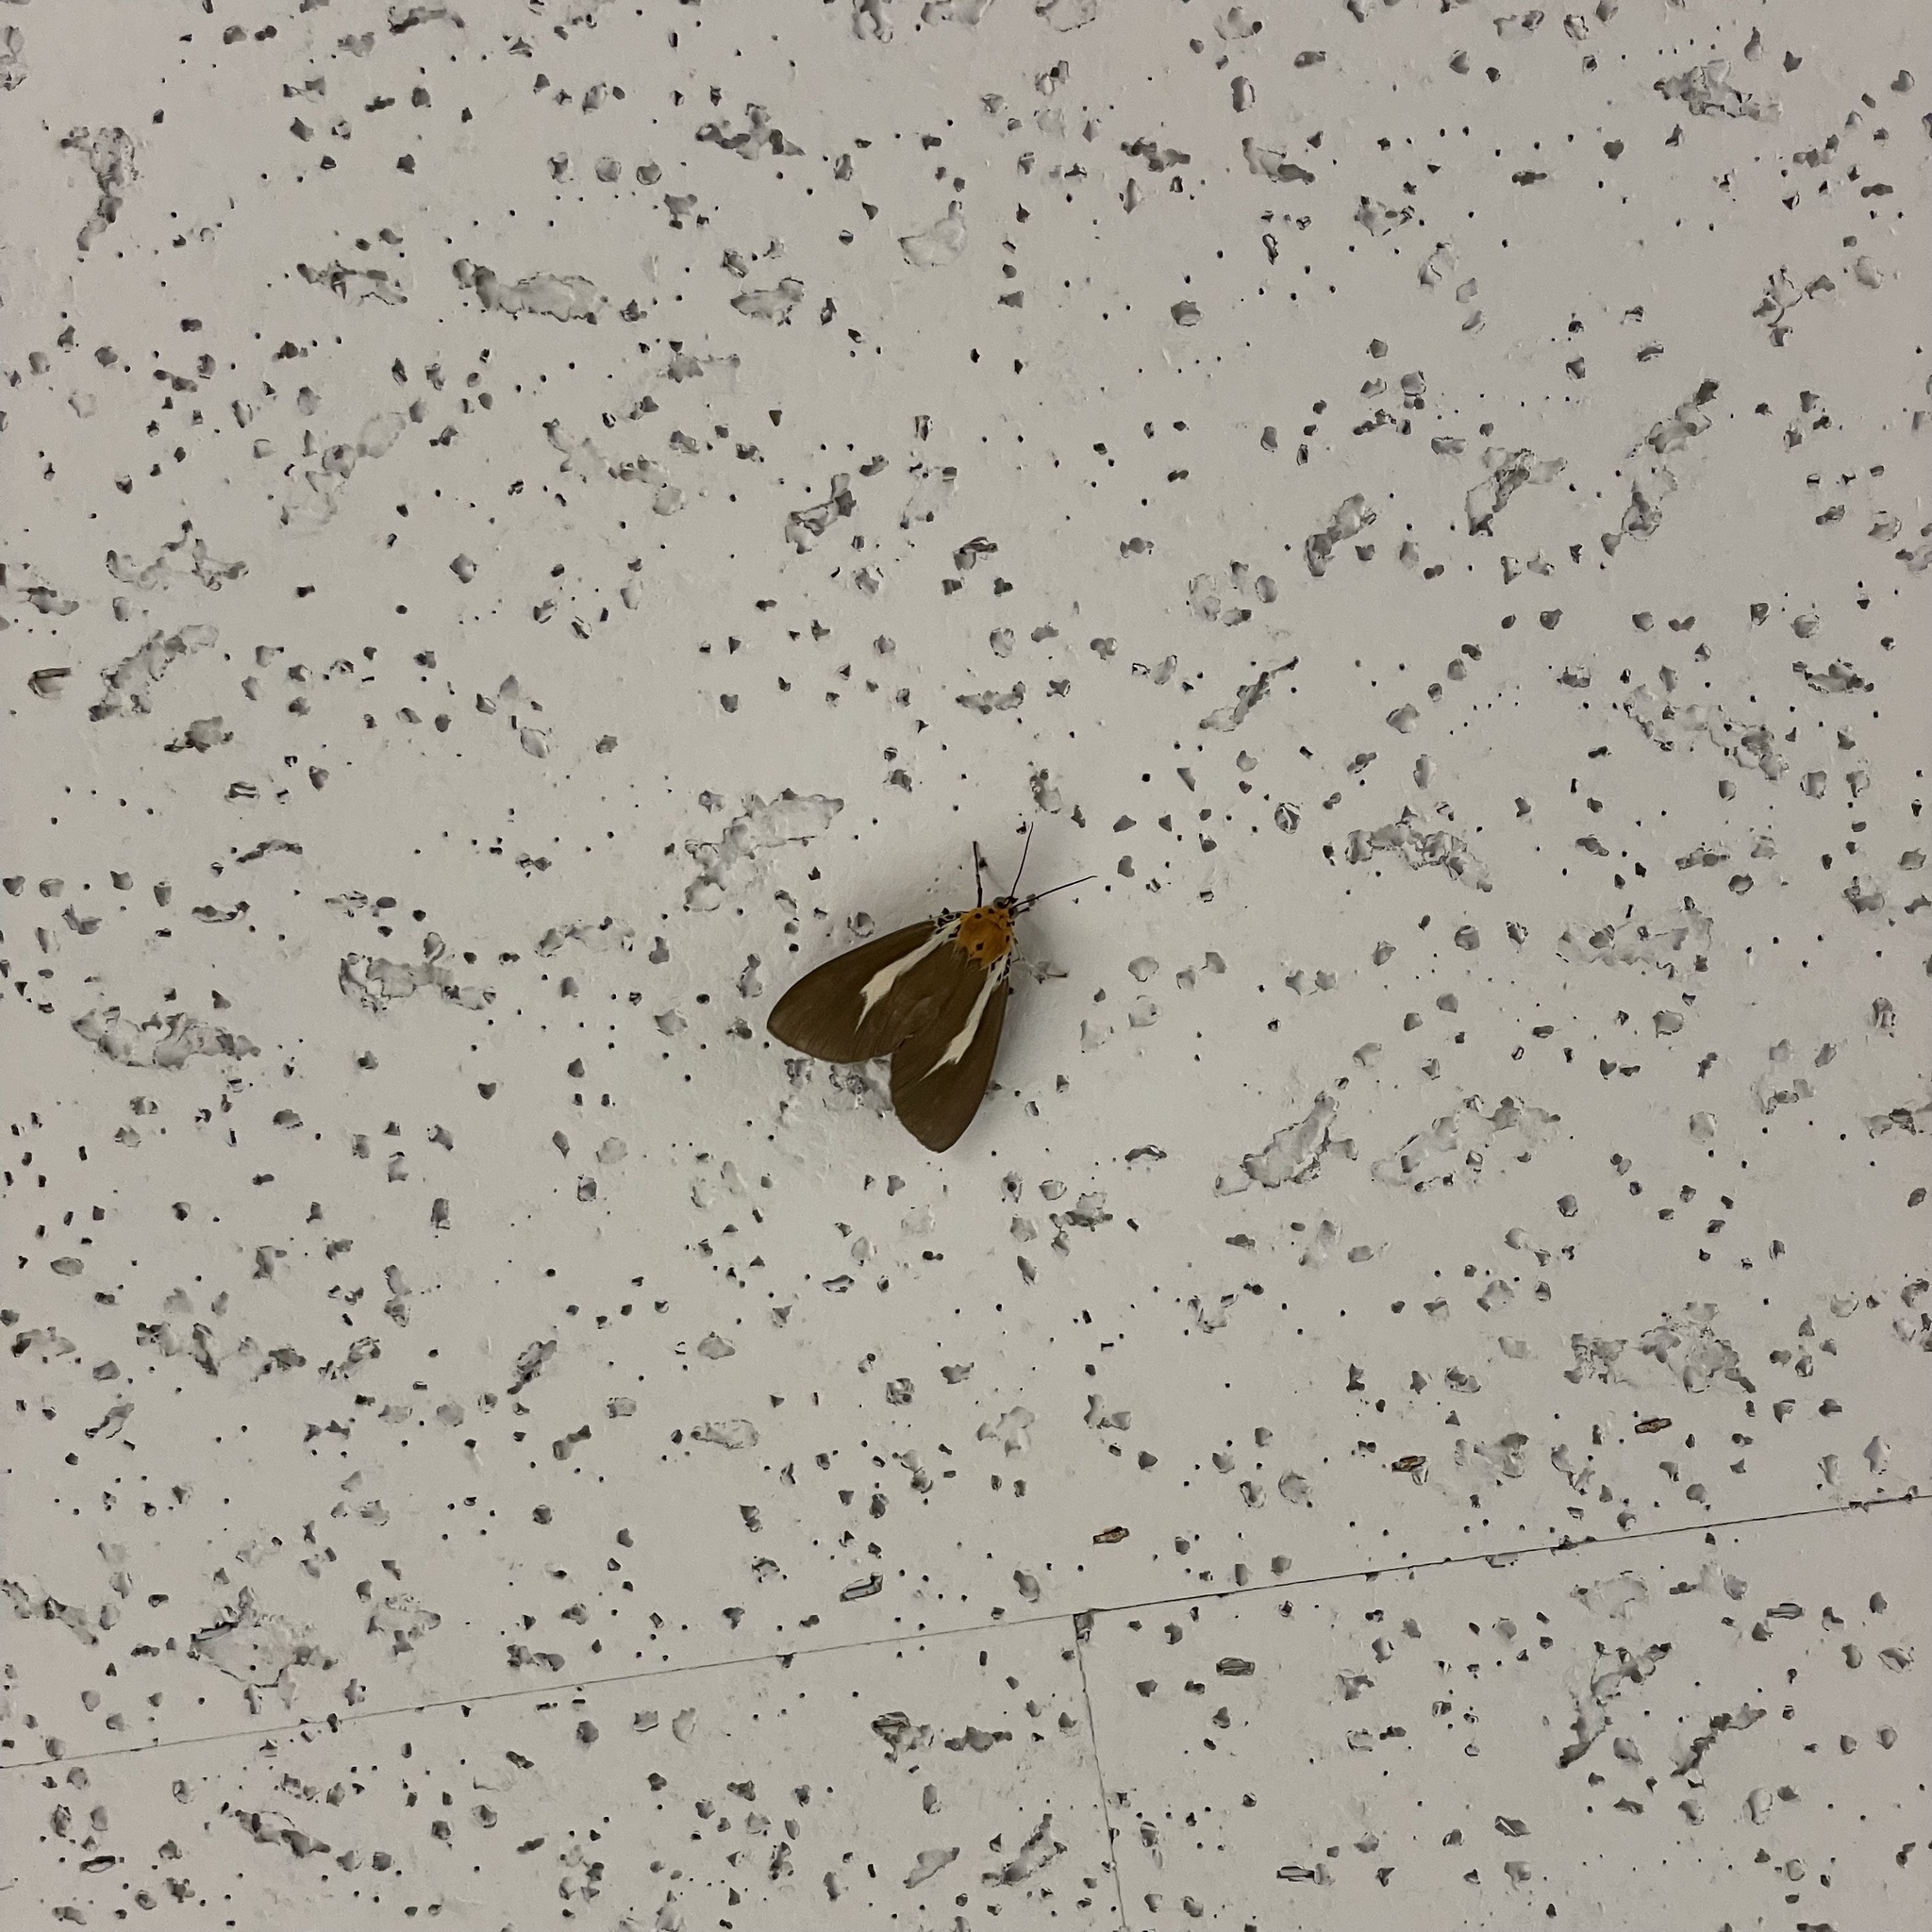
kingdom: Animalia
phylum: Arthropoda
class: Insecta
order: Lepidoptera
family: Erebidae
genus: Asota
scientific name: Asota heliconia
